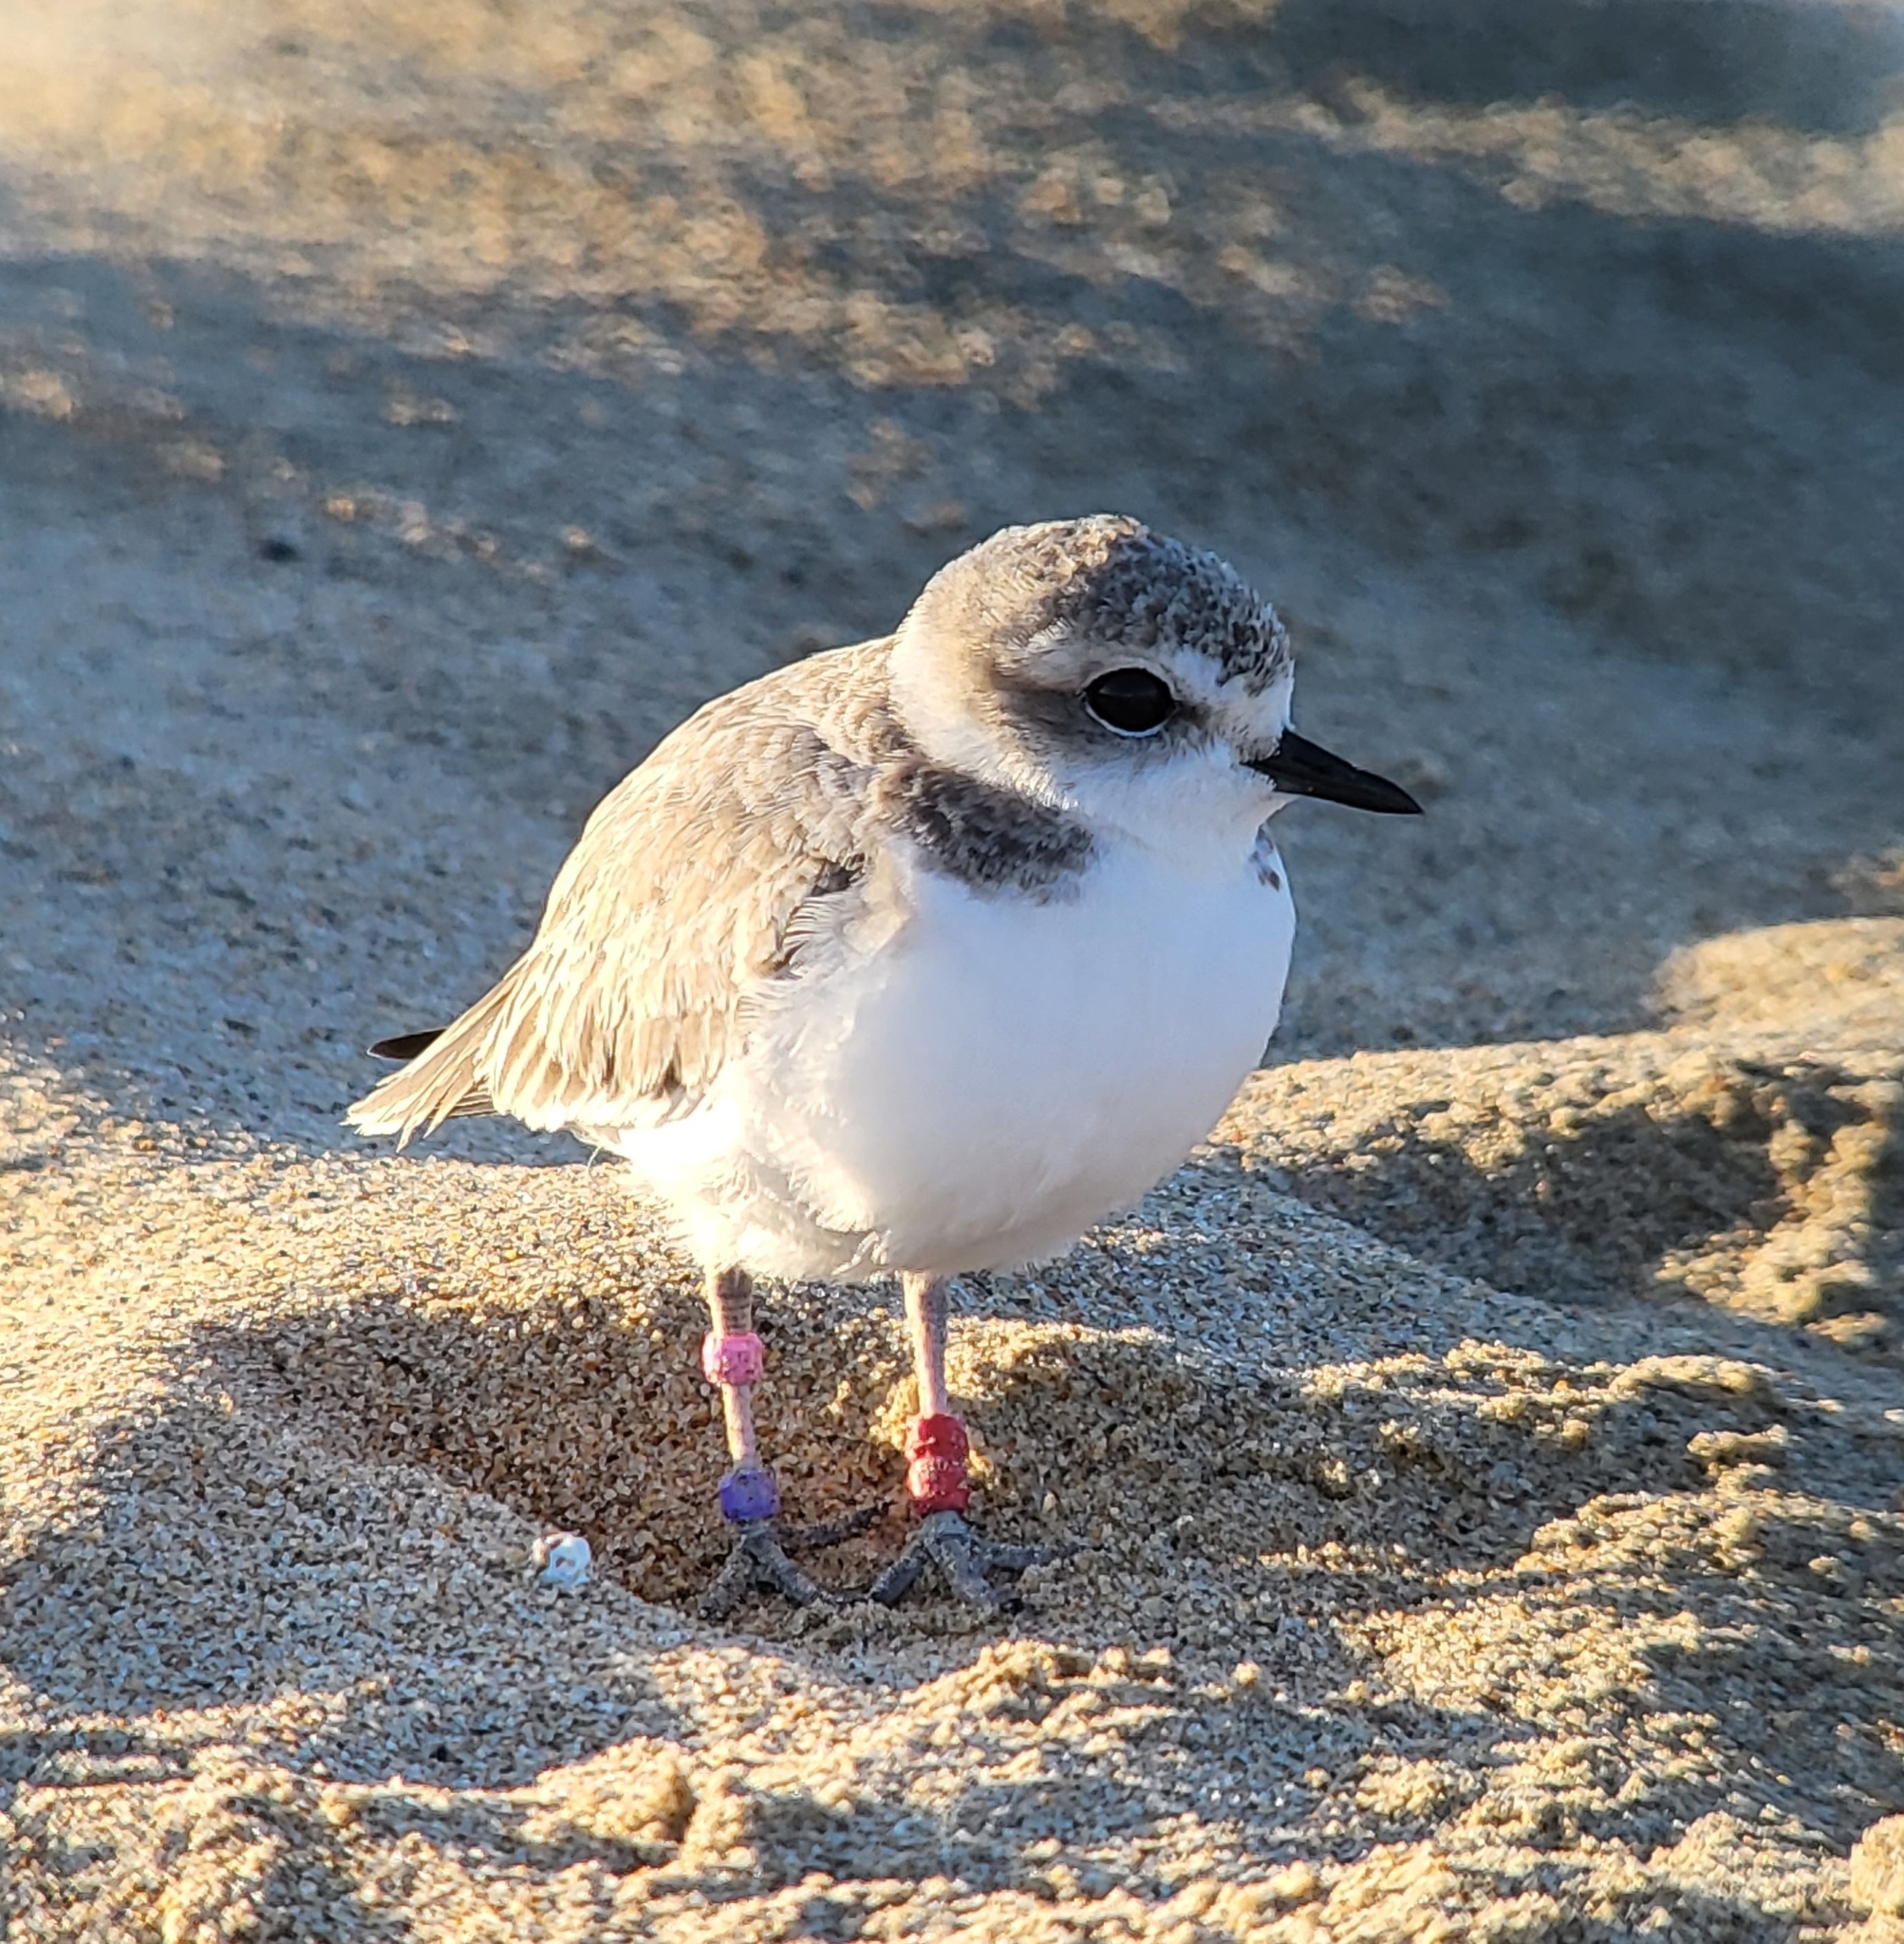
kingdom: Animalia
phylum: Chordata
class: Aves
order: Charadriiformes
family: Charadriidae
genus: Anarhynchus
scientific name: Anarhynchus
